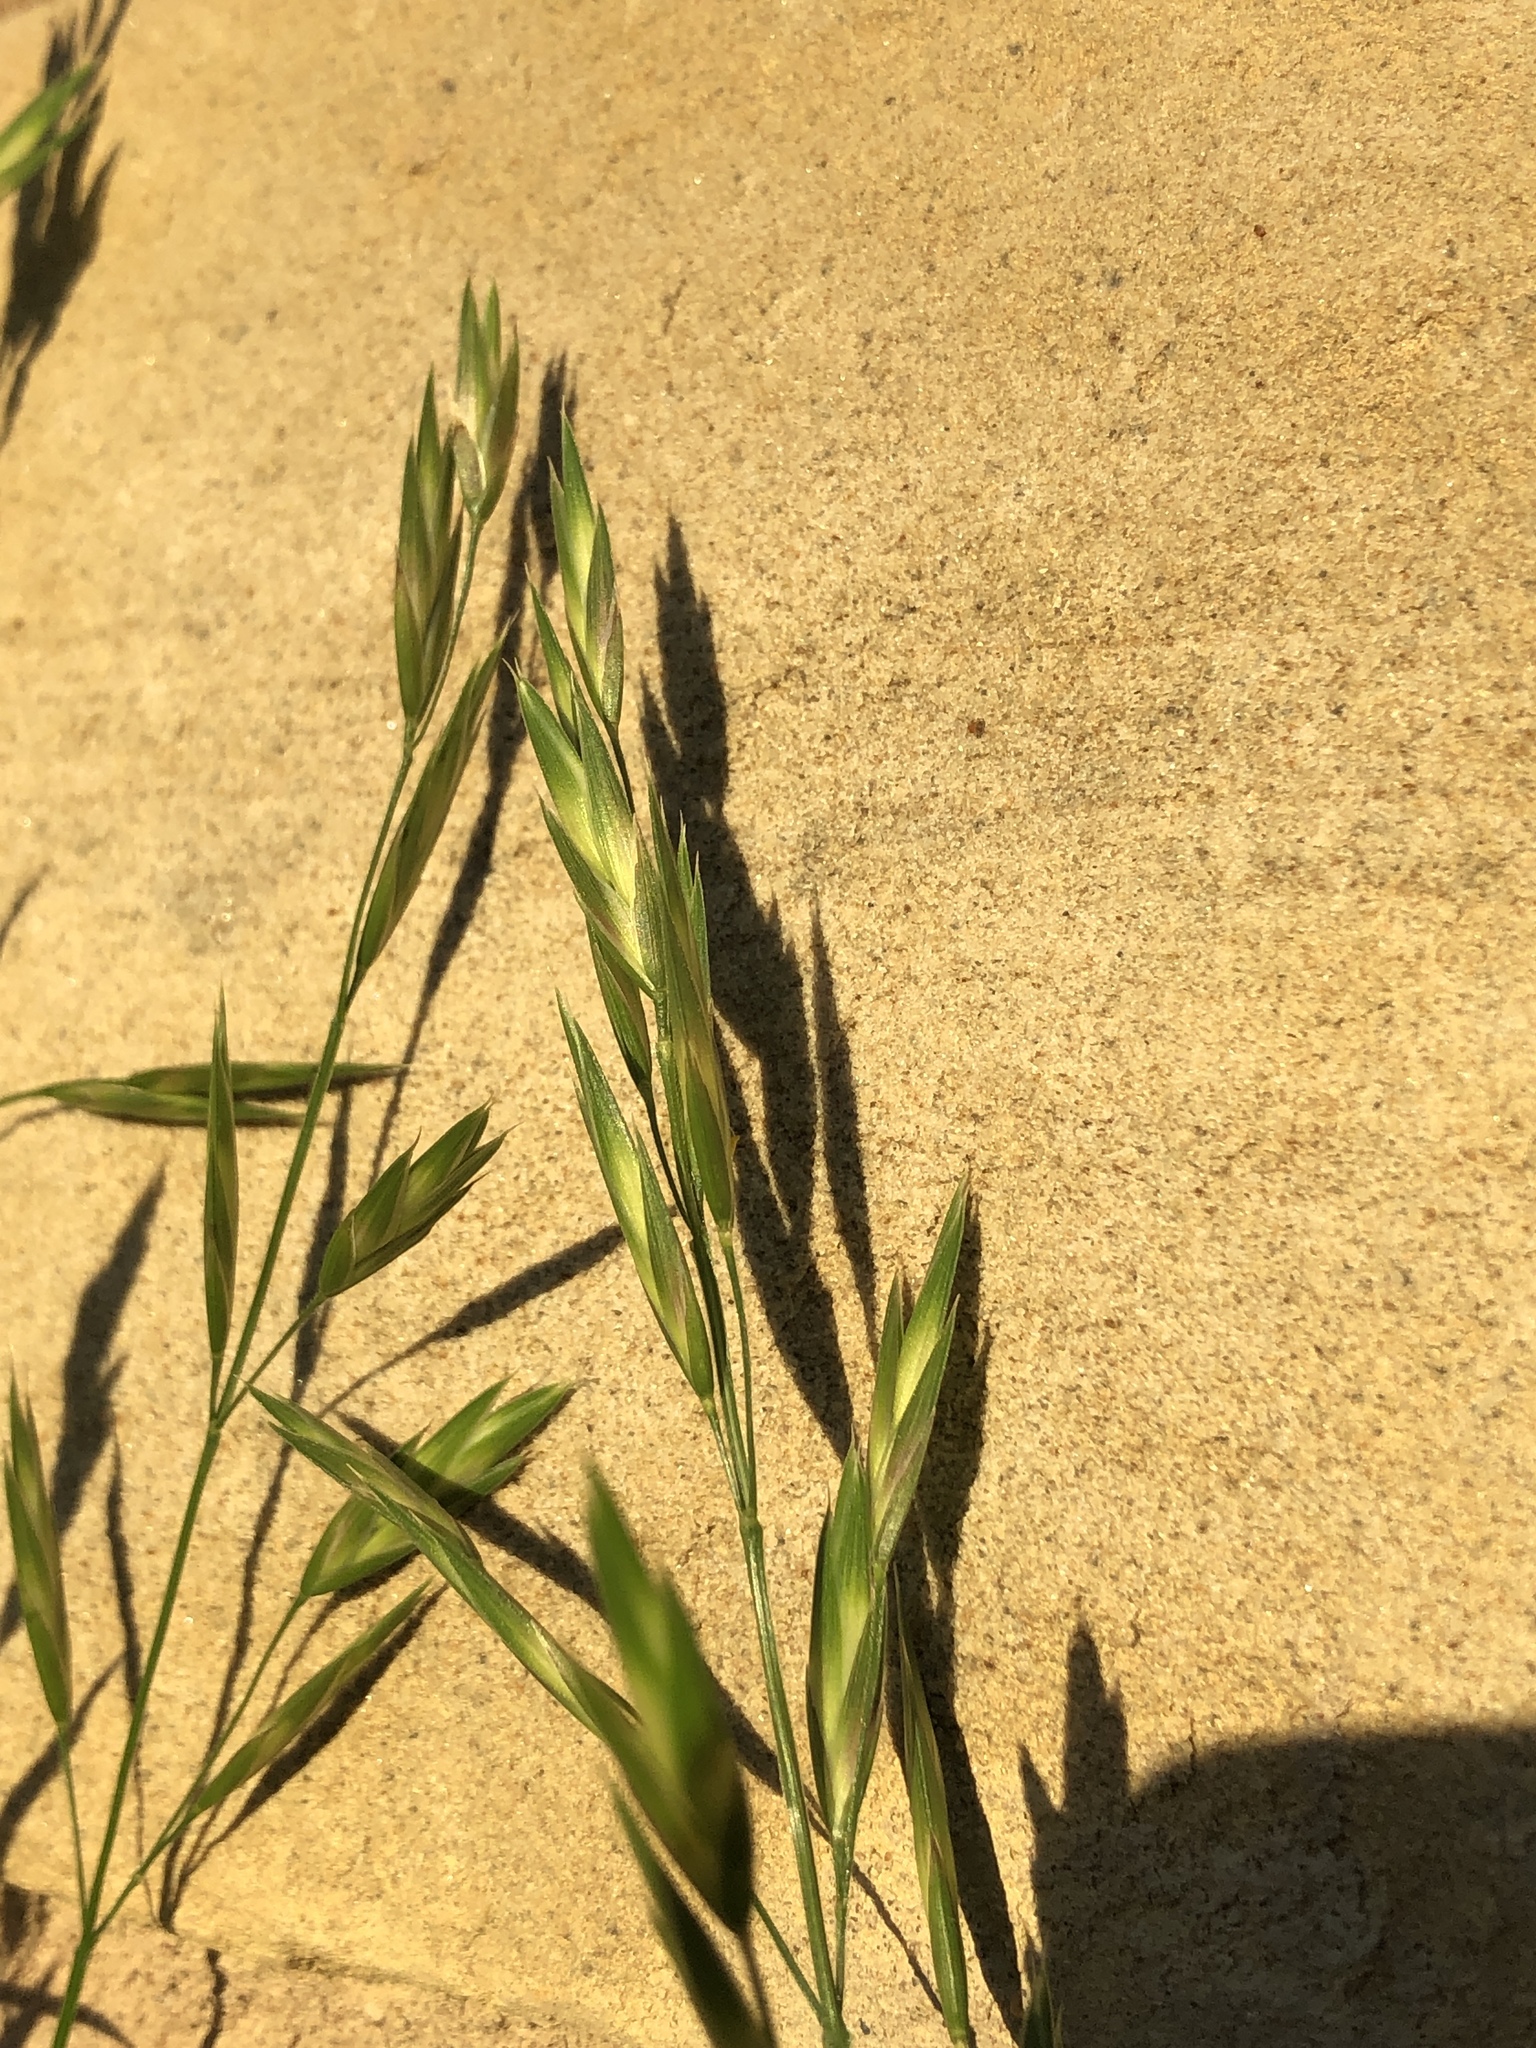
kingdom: Plantae
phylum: Tracheophyta
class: Liliopsida
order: Poales
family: Poaceae
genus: Bromus
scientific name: Bromus catharticus
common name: Rescuegrass
